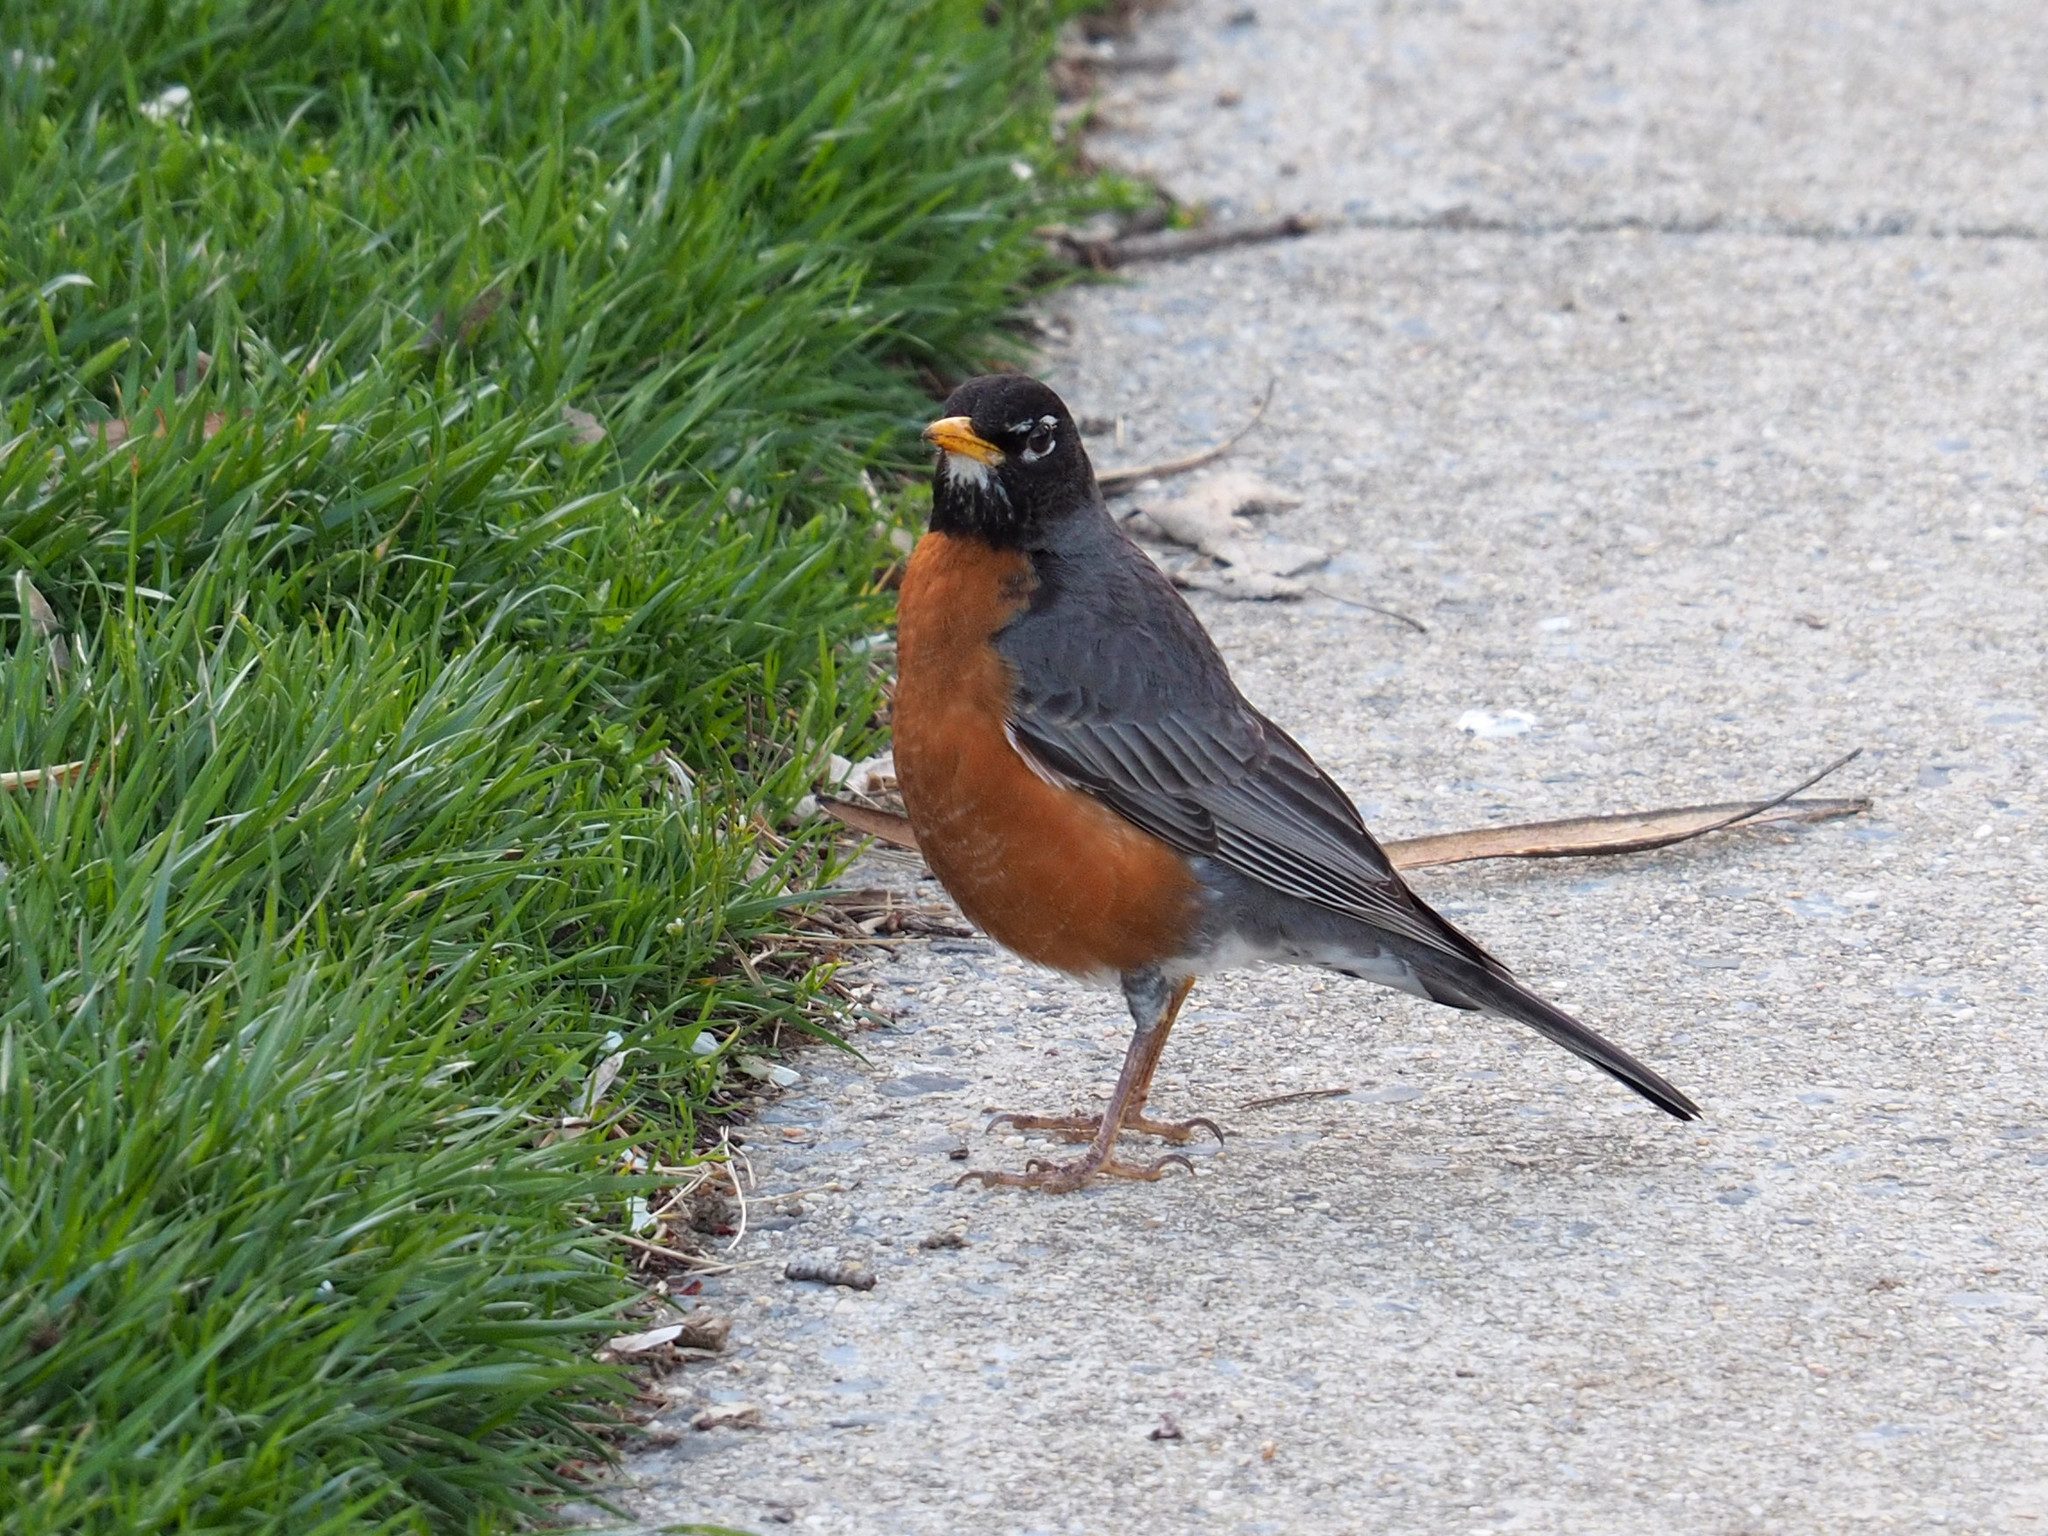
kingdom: Animalia
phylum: Chordata
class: Aves
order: Passeriformes
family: Turdidae
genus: Turdus
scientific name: Turdus migratorius
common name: American robin
